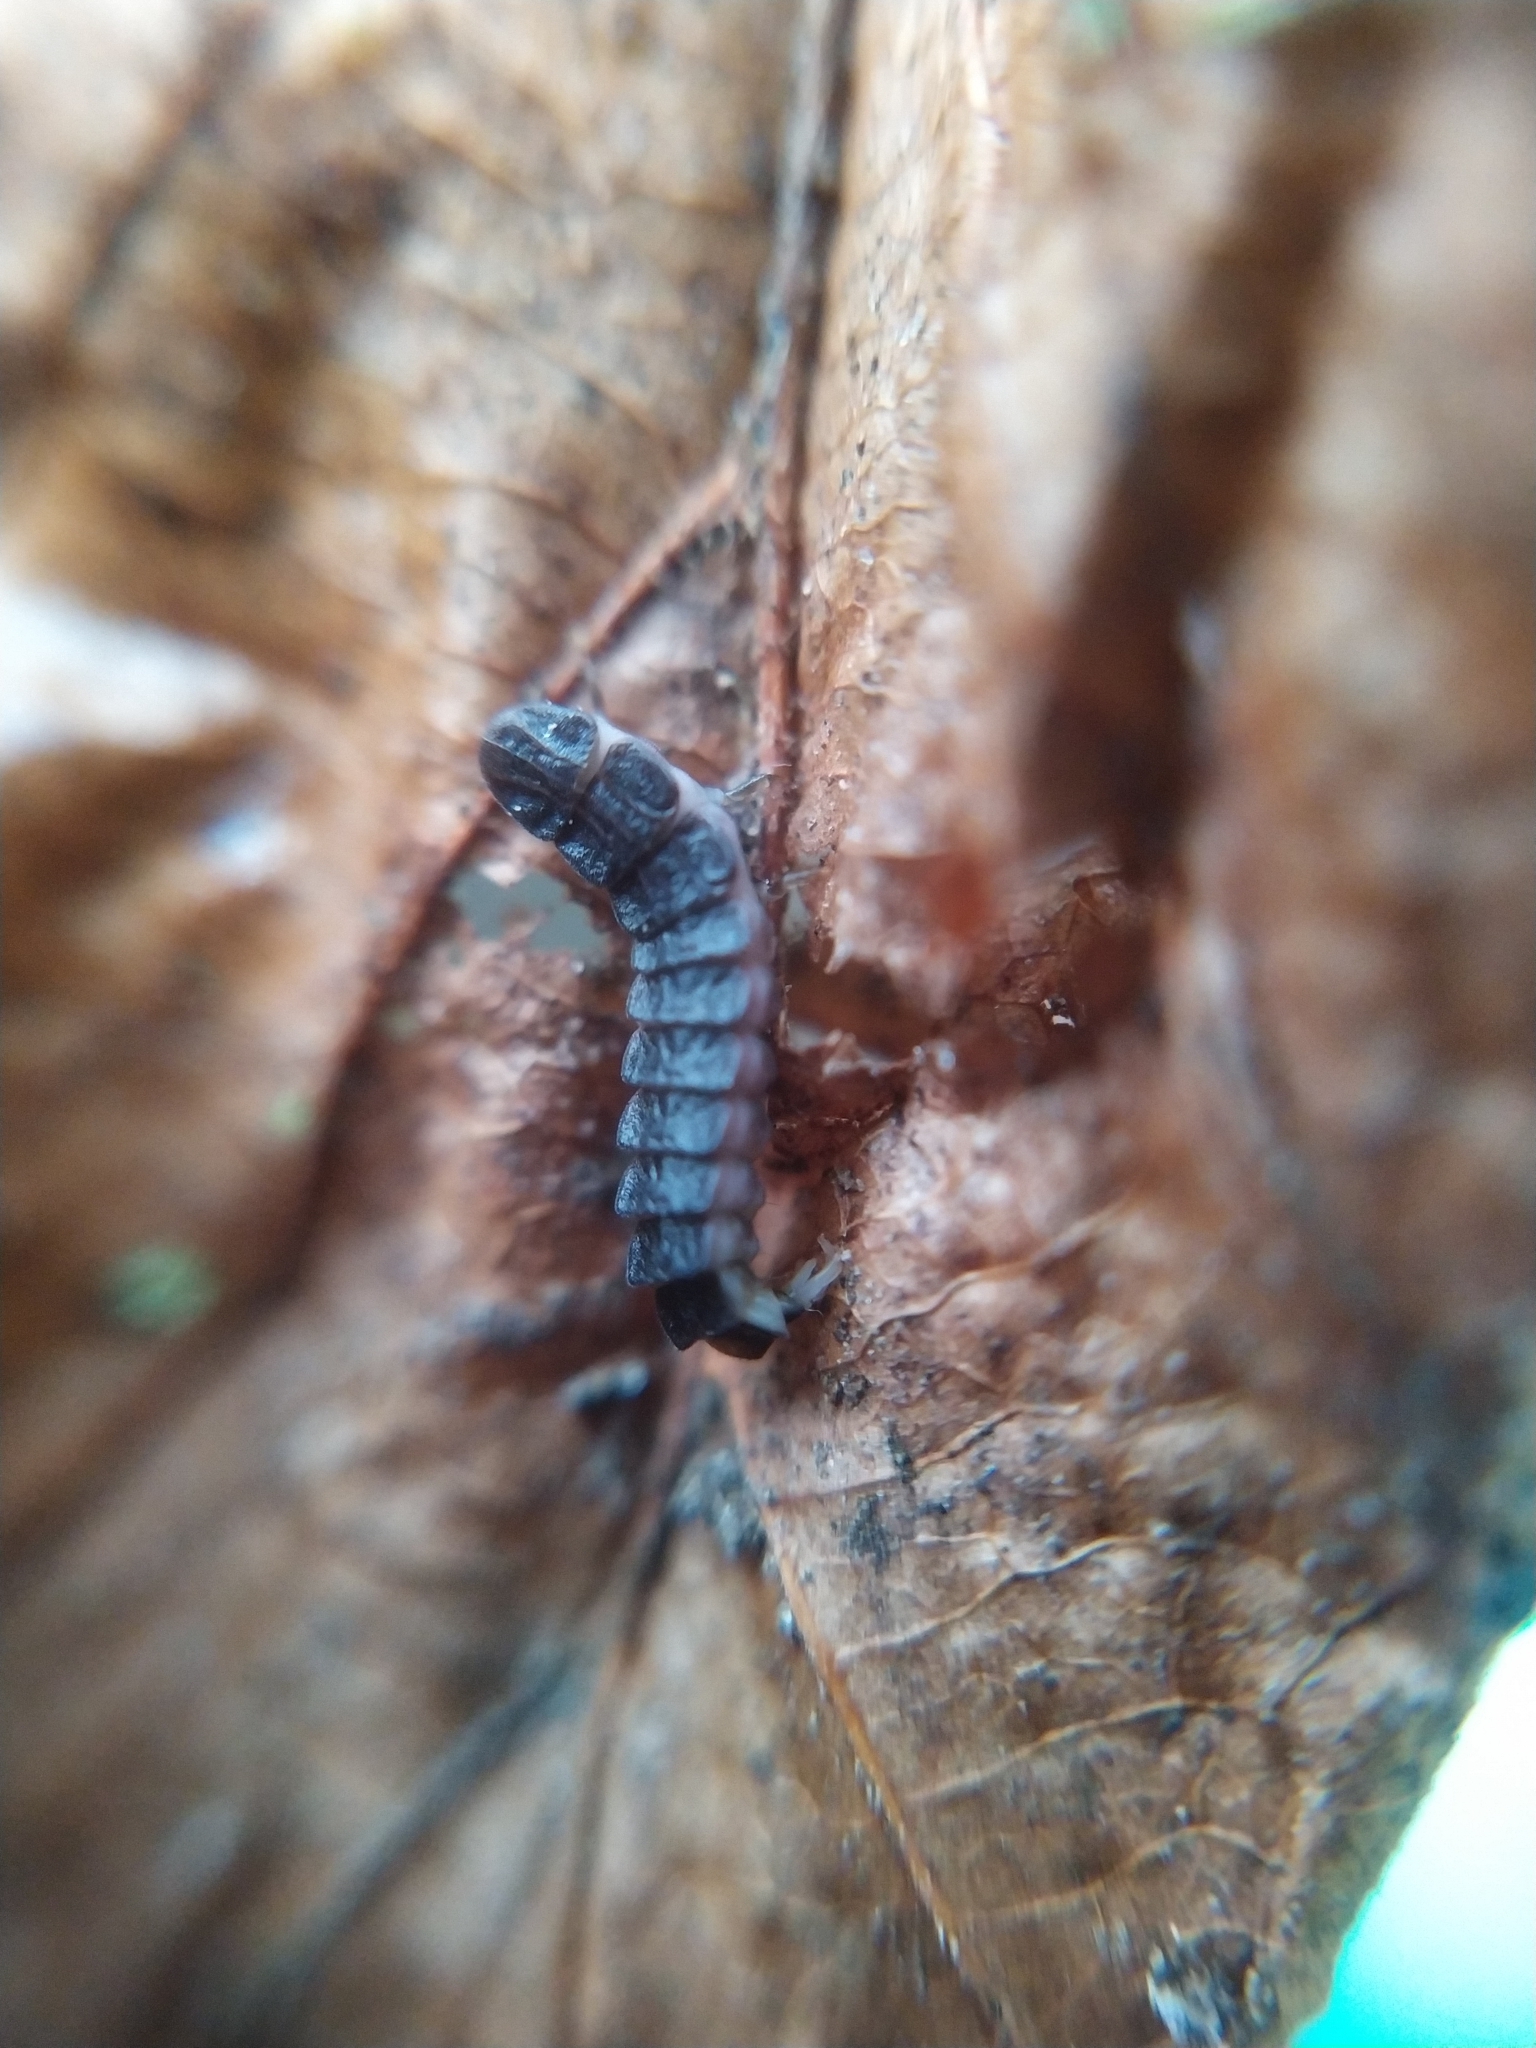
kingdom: Animalia
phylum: Arthropoda
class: Insecta
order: Coleoptera
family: Lampyridae
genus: Phosphaenus
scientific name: Phosphaenus hemipterus
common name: Short-winged firefly
